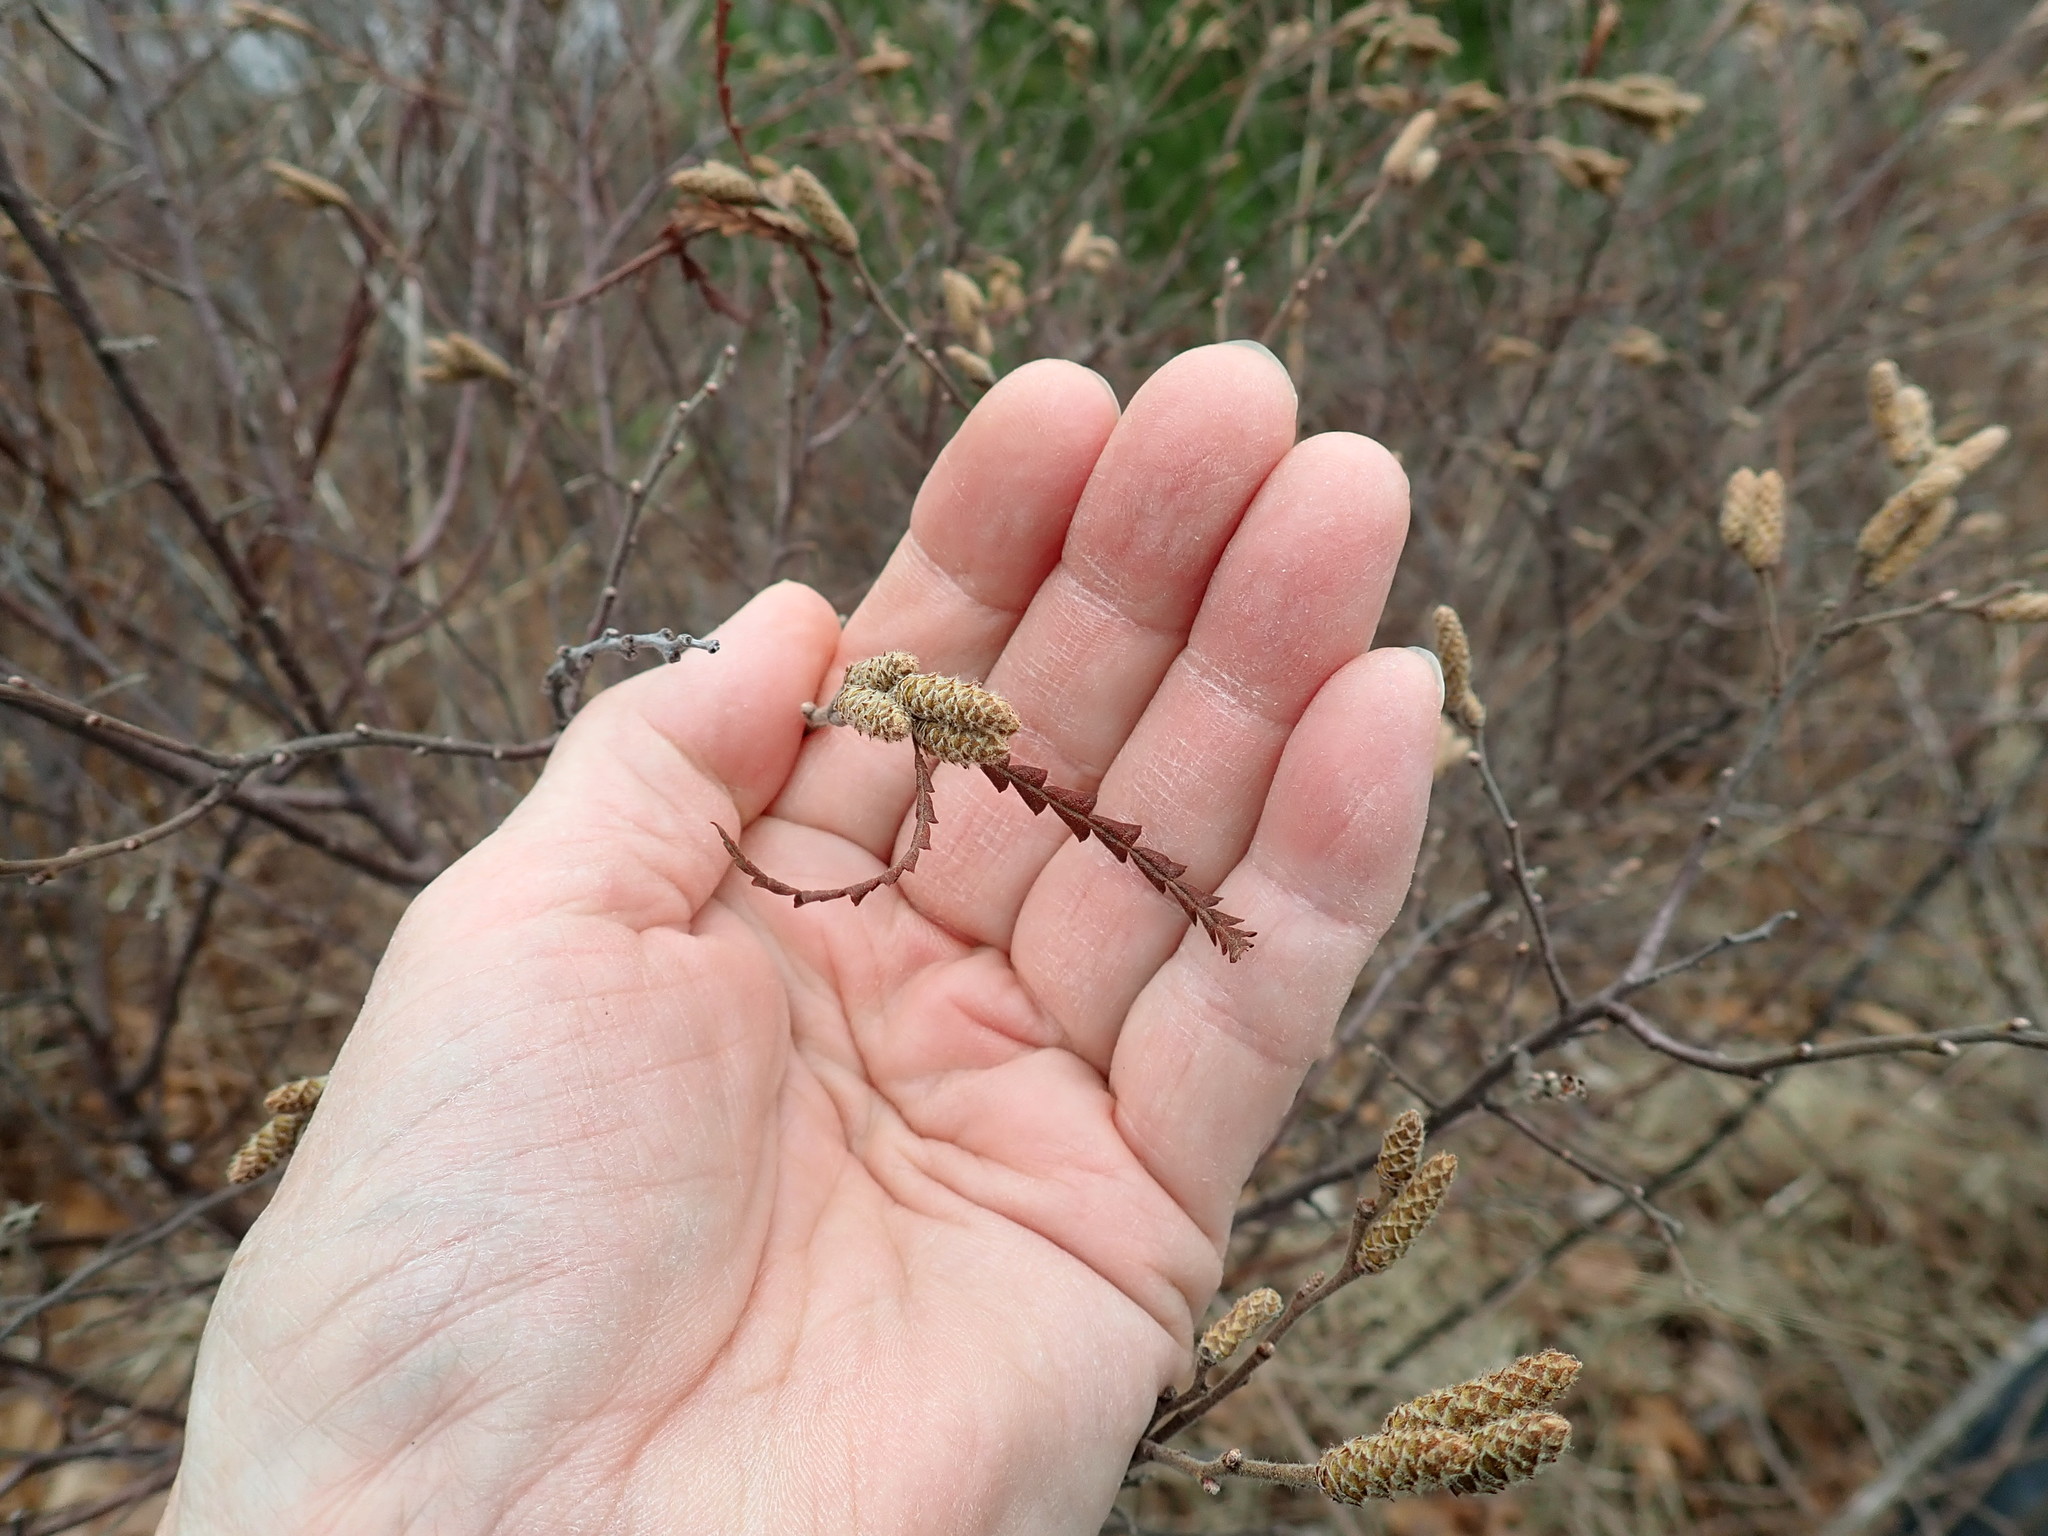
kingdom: Plantae
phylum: Tracheophyta
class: Magnoliopsida
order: Fagales
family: Myricaceae
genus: Comptonia
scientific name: Comptonia peregrina
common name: Sweet-fern
